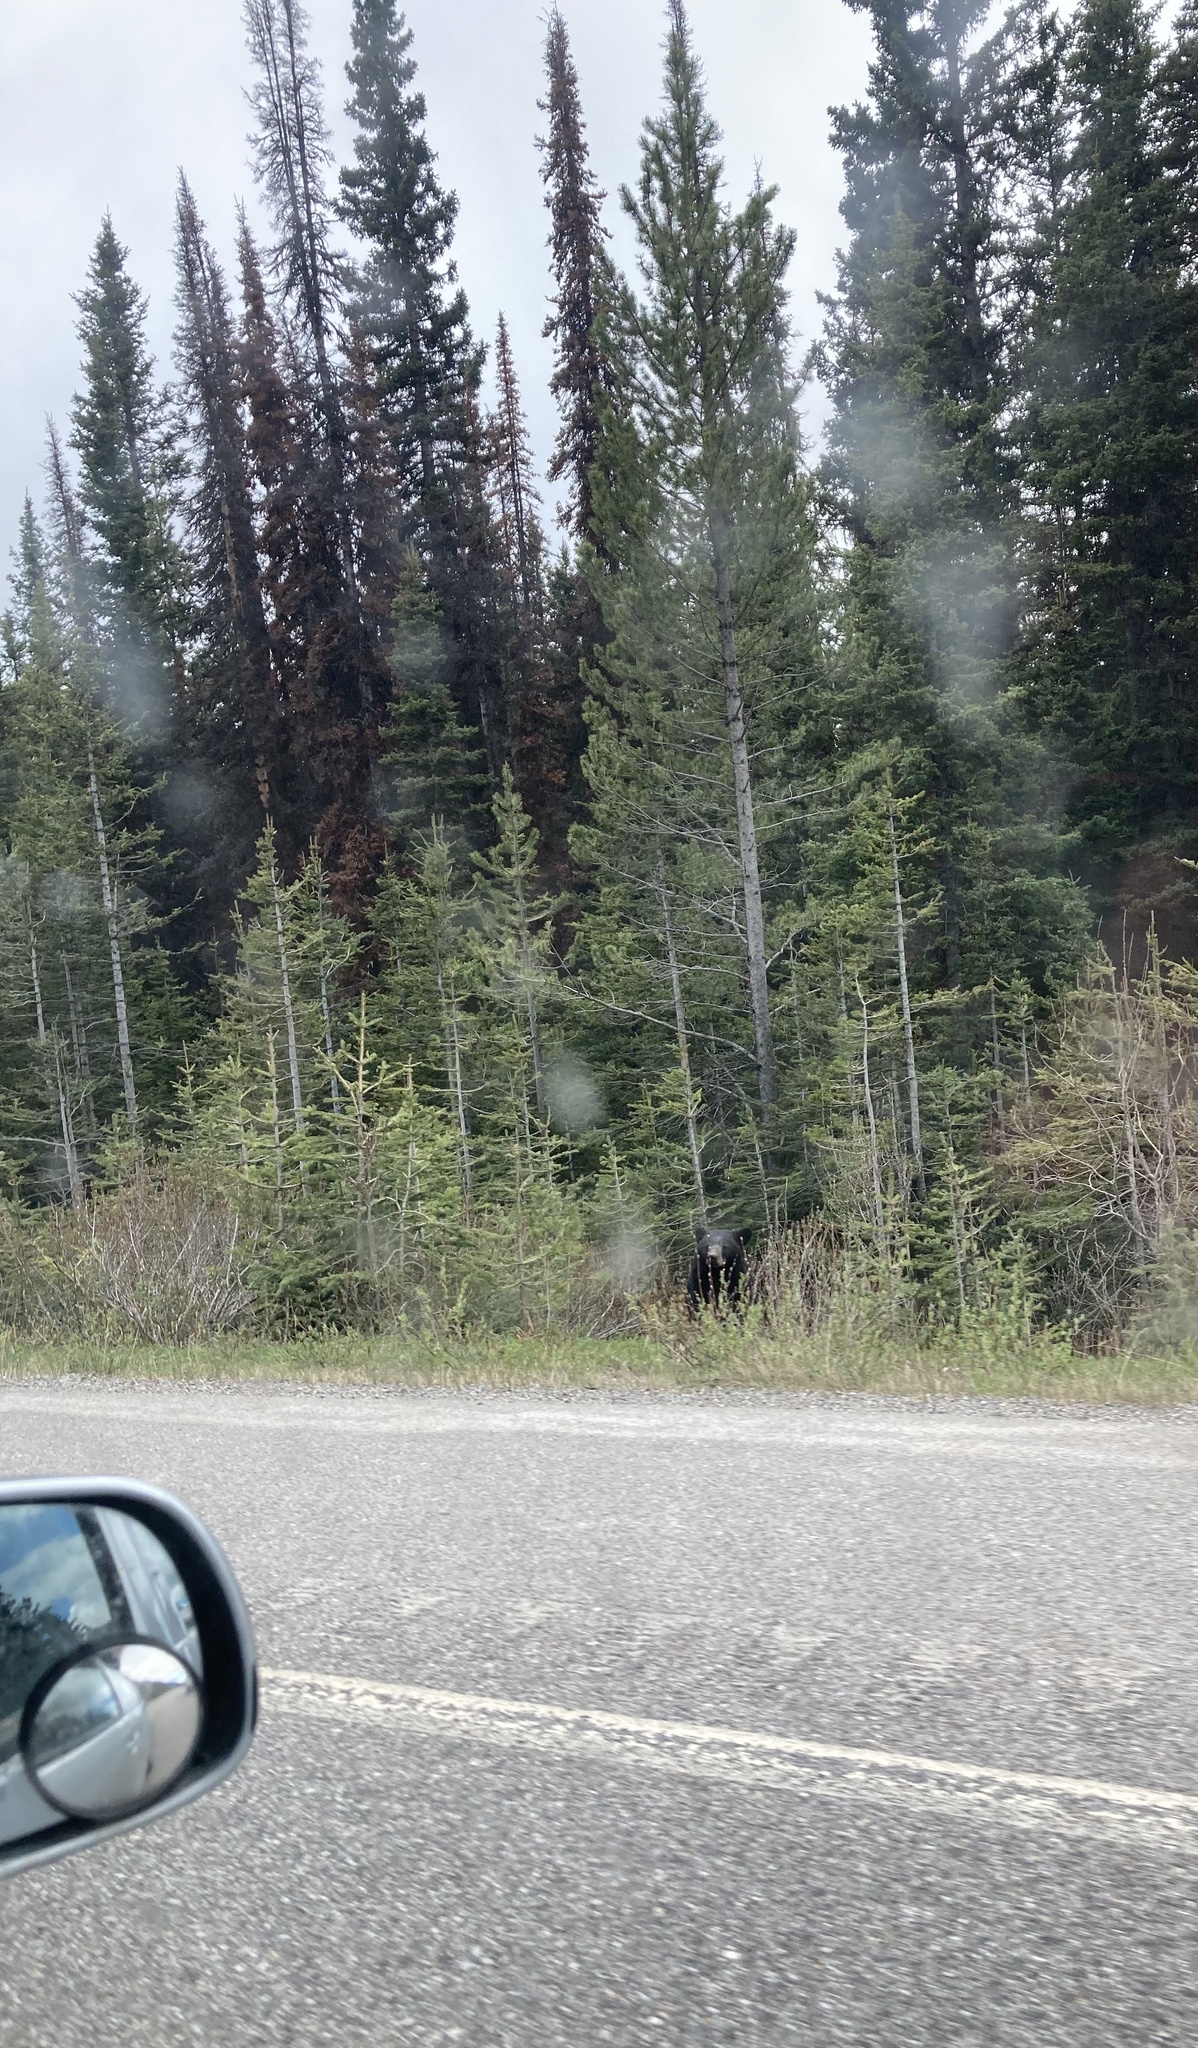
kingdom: Animalia
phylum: Chordata
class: Mammalia
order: Carnivora
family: Ursidae
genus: Ursus
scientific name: Ursus americanus
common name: American black bear
